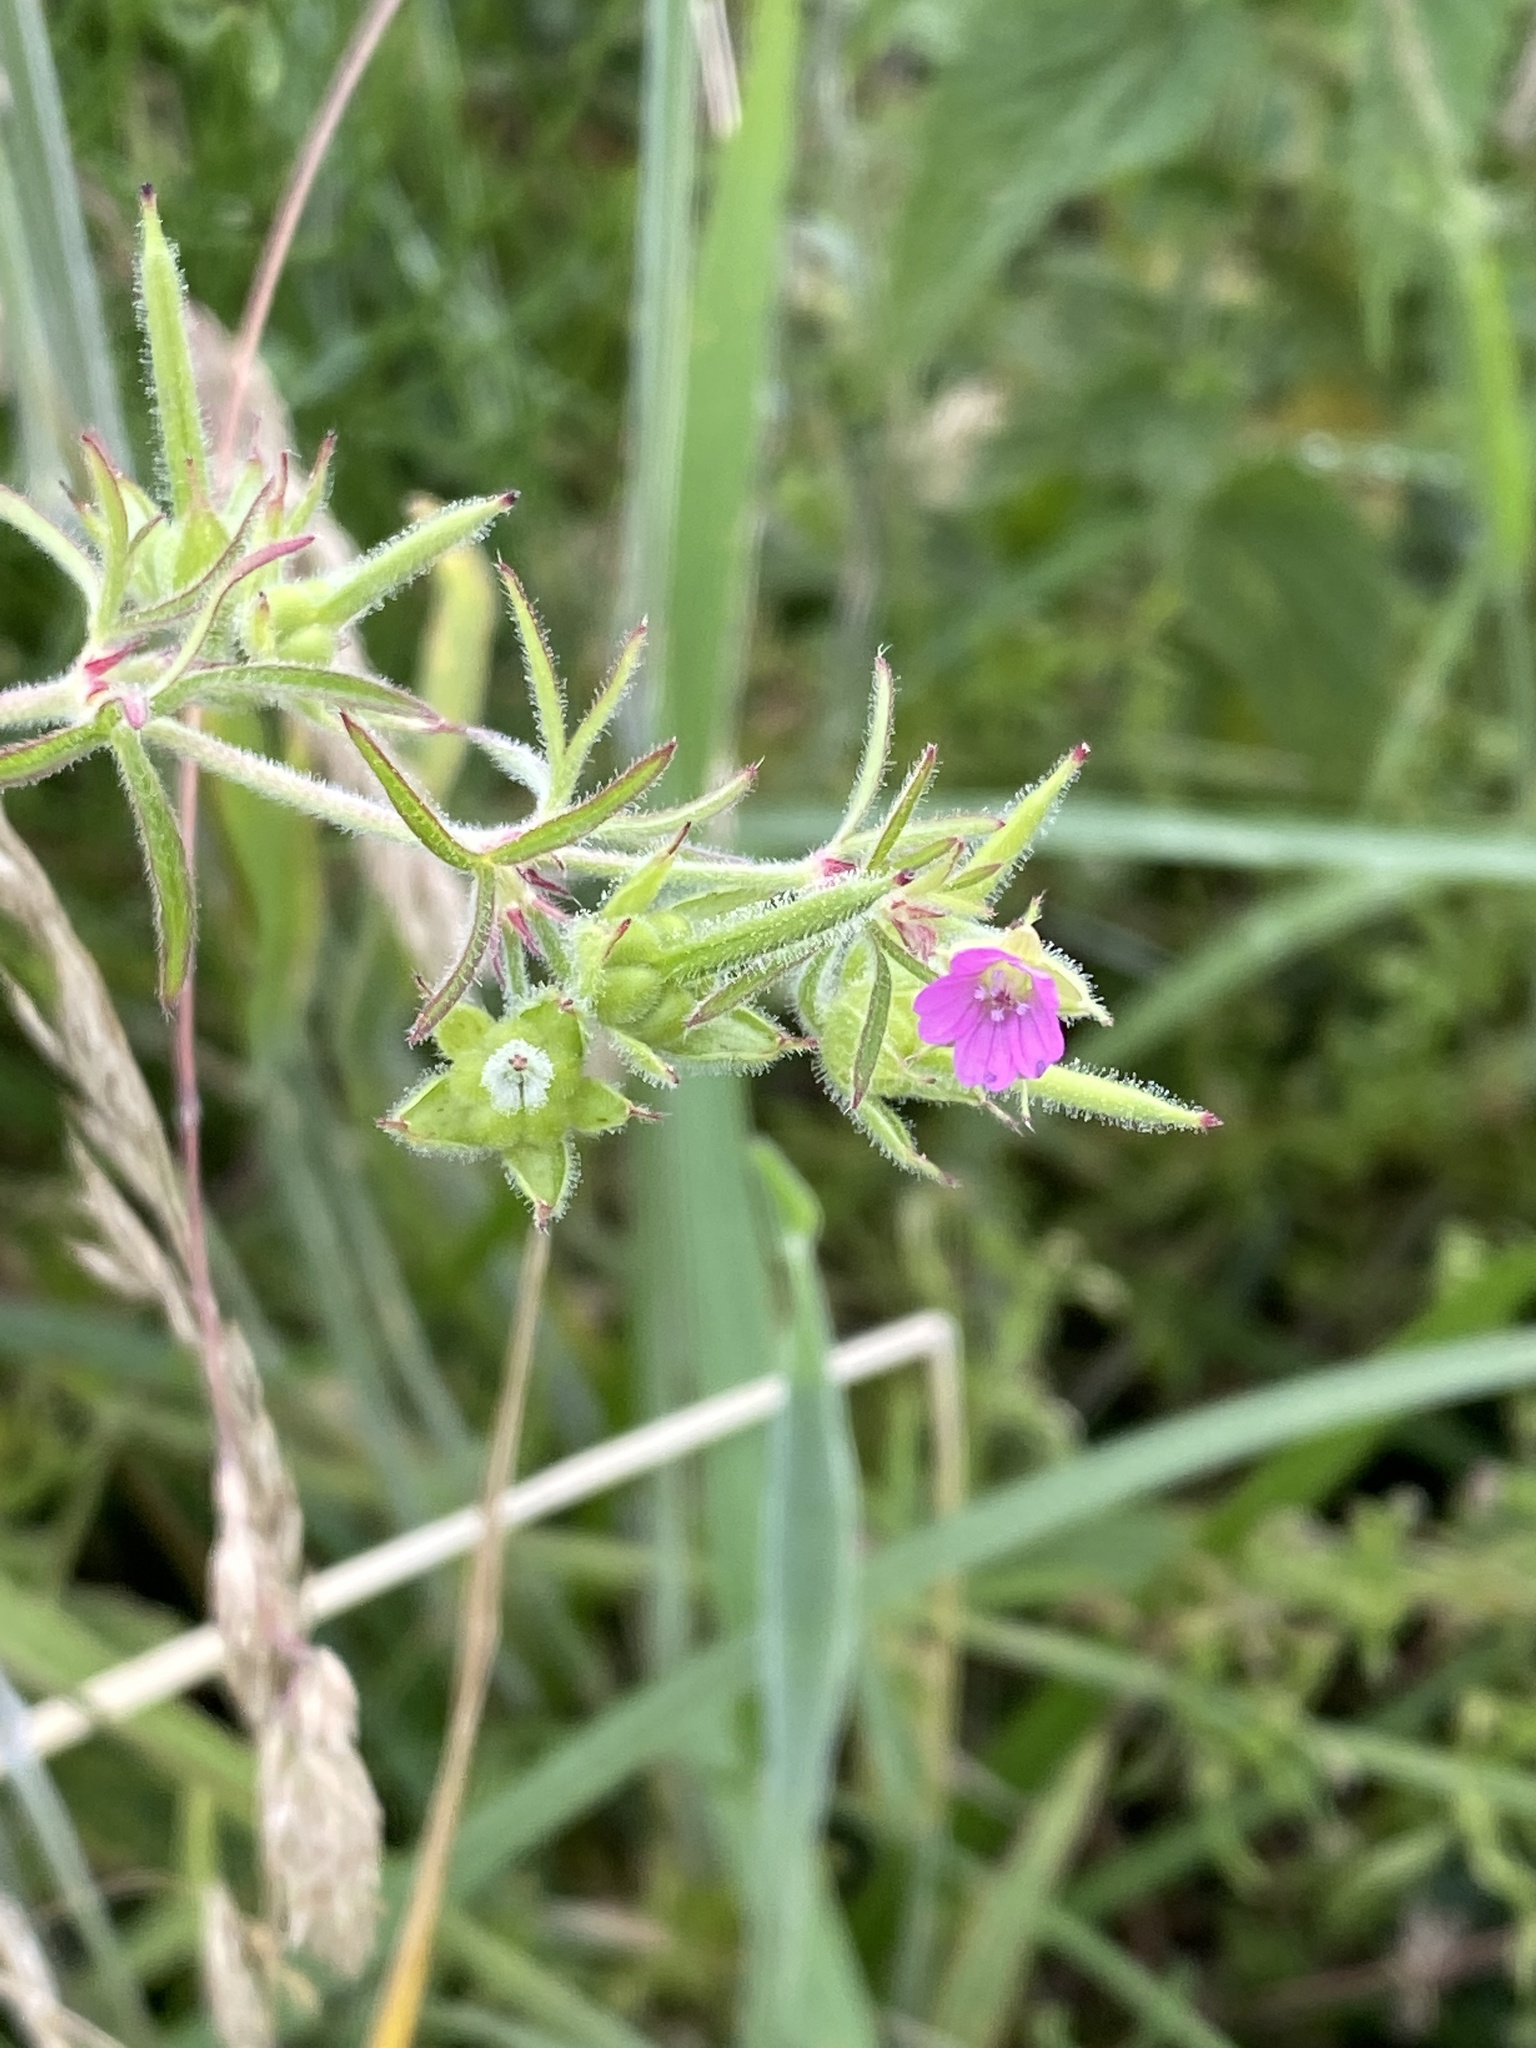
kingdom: Plantae
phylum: Tracheophyta
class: Magnoliopsida
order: Geraniales
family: Geraniaceae
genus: Geranium
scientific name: Geranium dissectum
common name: Cut-leaved crane's-bill
